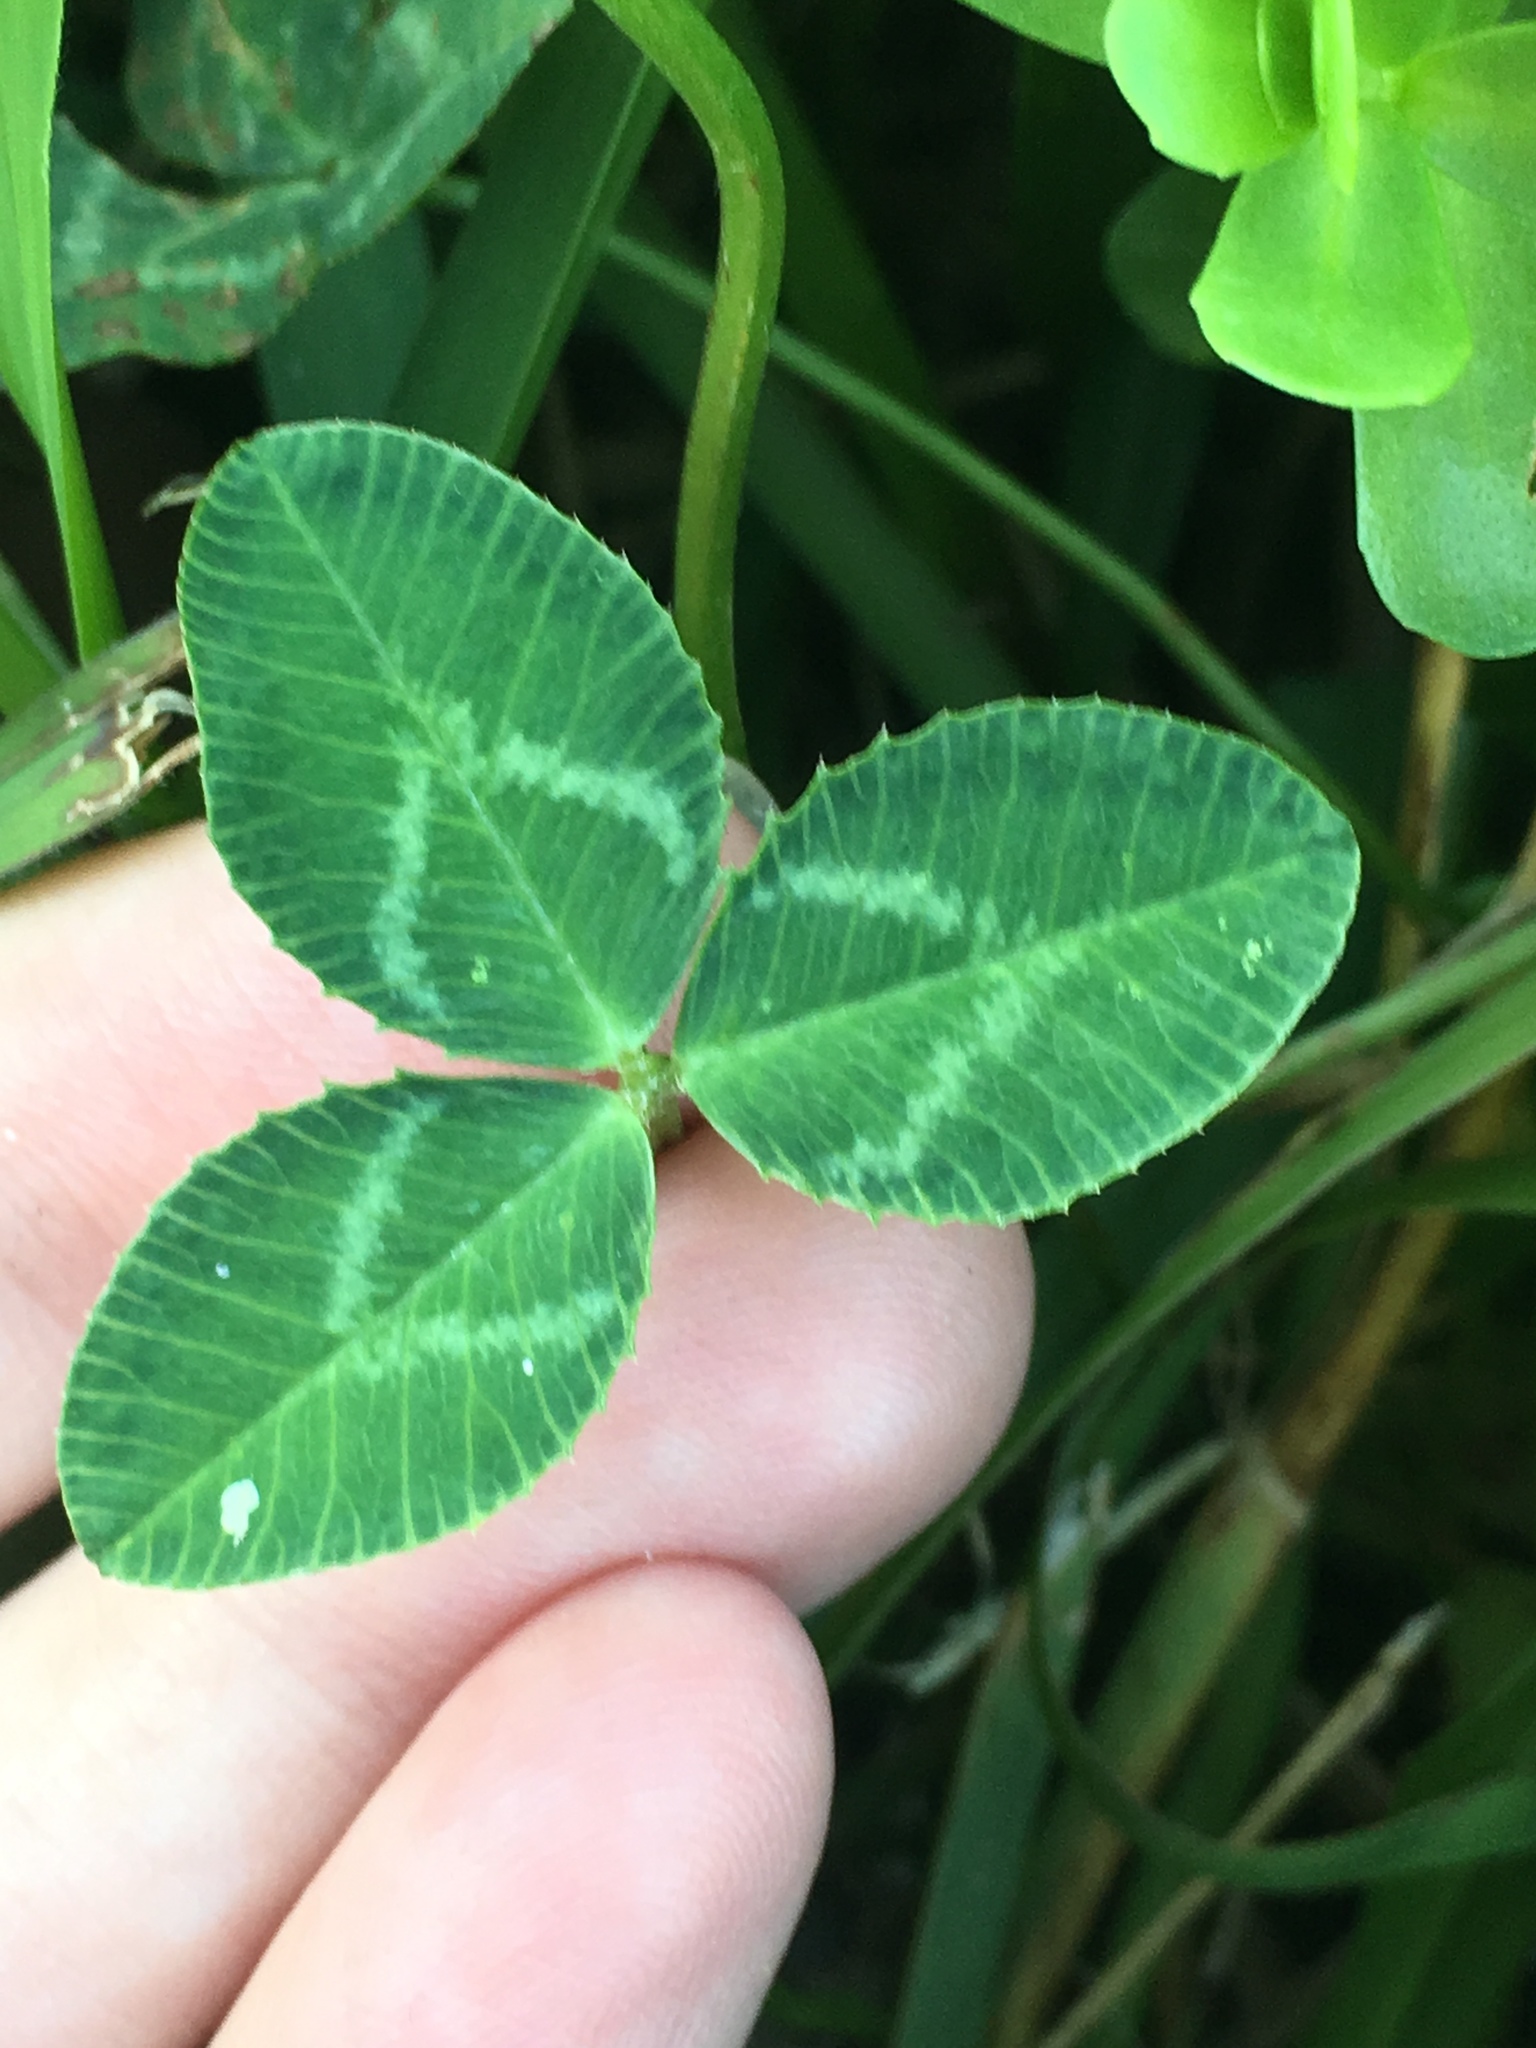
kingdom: Plantae
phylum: Tracheophyta
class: Magnoliopsida
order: Fabales
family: Fabaceae
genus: Trifolium
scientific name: Trifolium repens
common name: White clover
